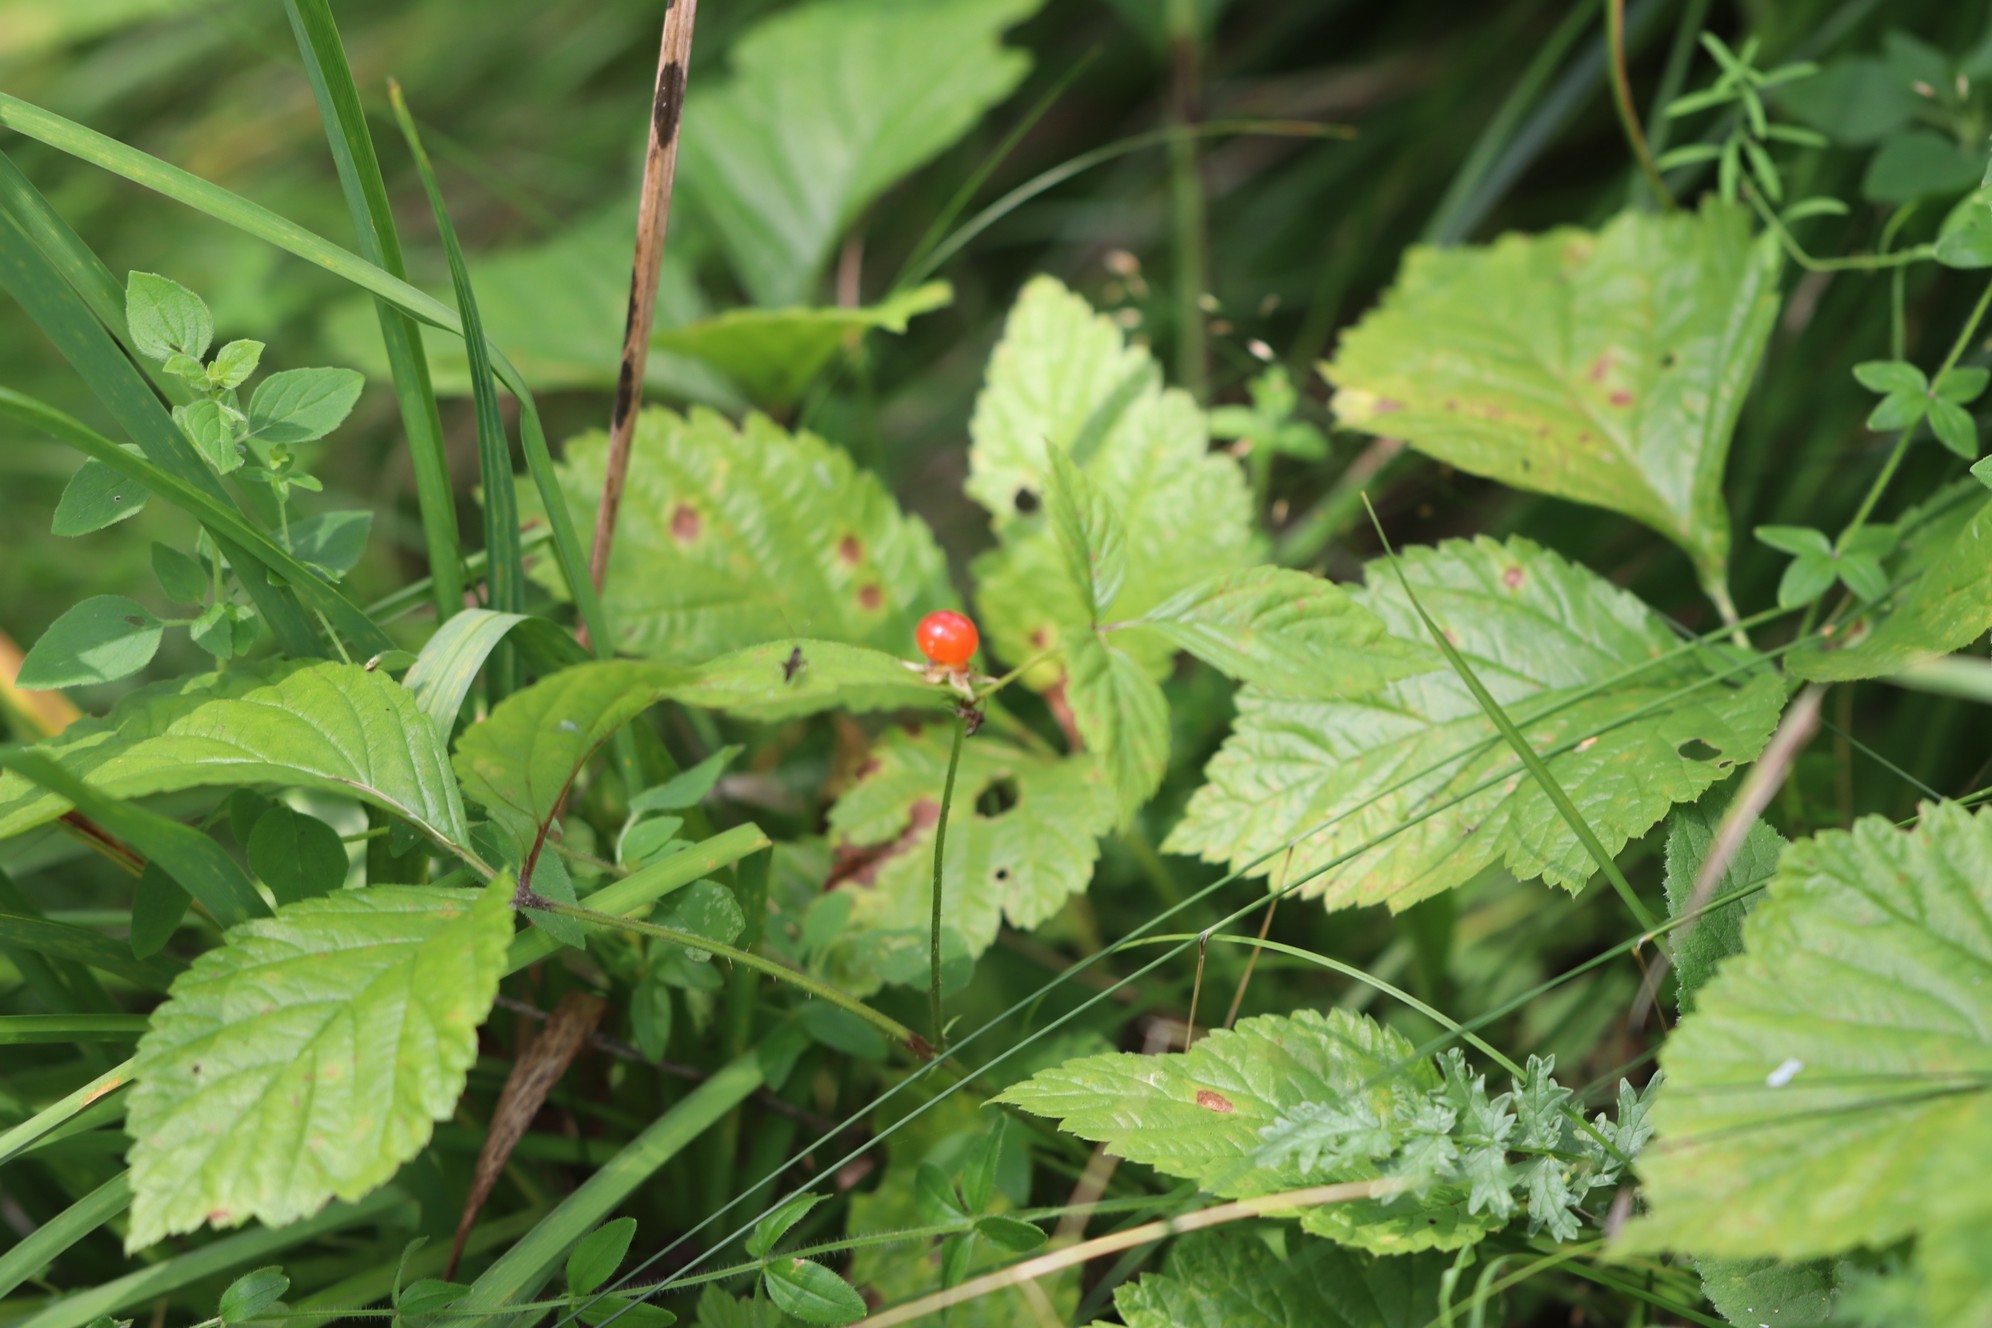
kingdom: Plantae
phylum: Tracheophyta
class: Magnoliopsida
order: Rosales
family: Rosaceae
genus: Rubus
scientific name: Rubus saxatilis
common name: Stone bramble
